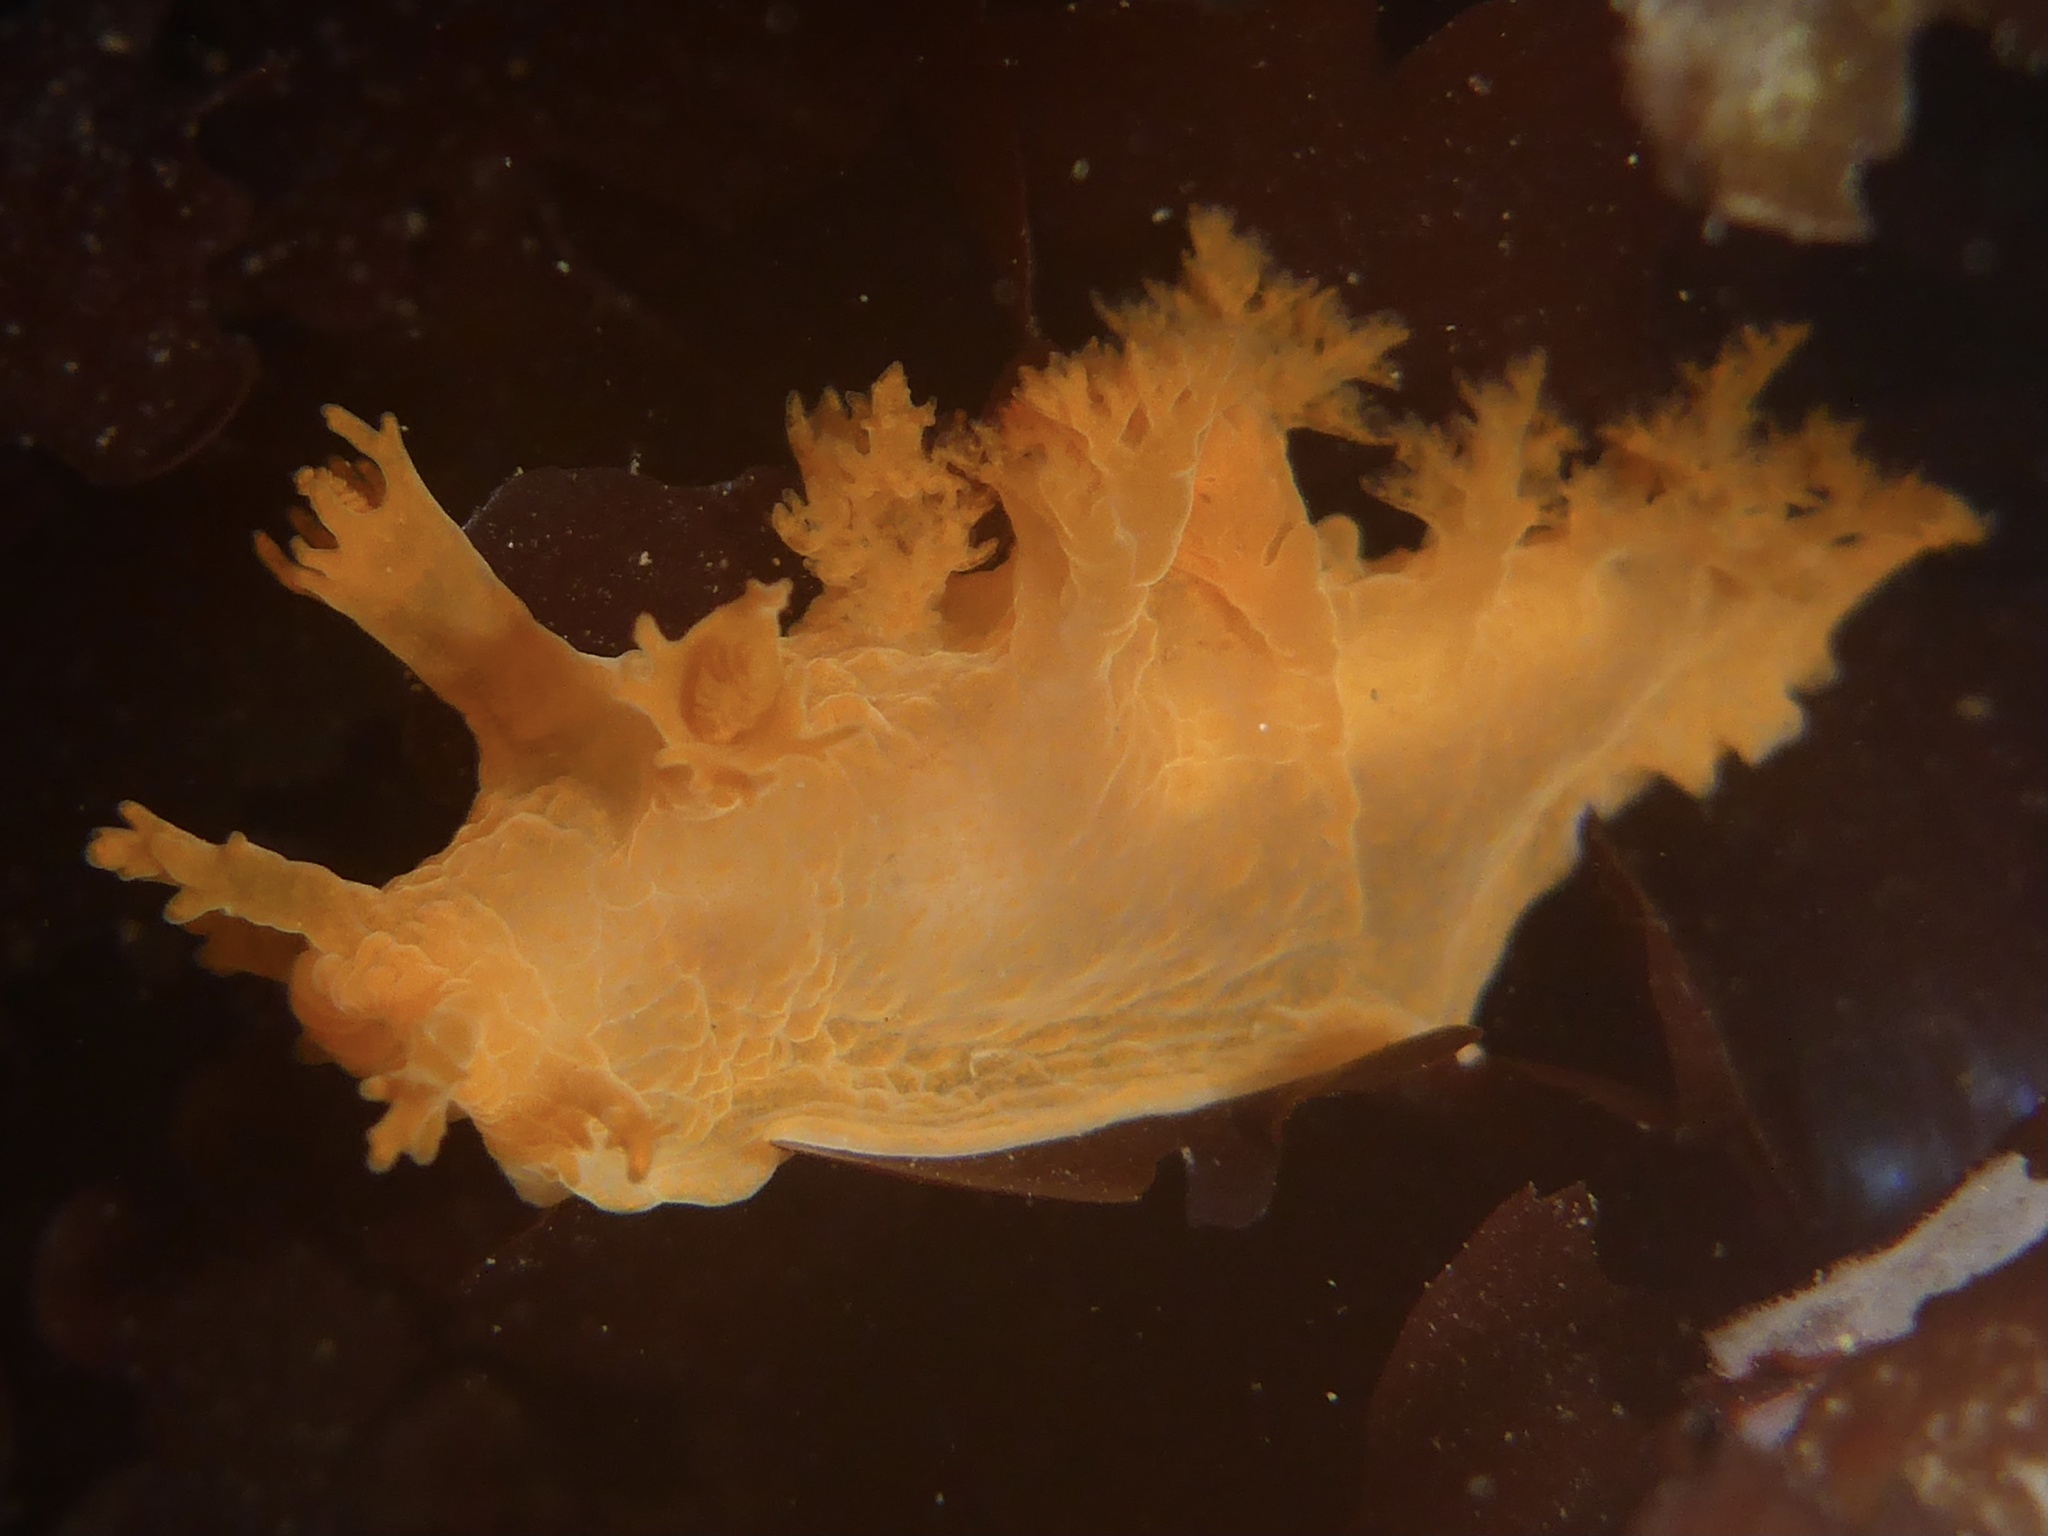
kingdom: Animalia
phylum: Mollusca
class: Gastropoda
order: Nudibranchia
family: Dendronotidae
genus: Dendronotus
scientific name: Dendronotus subramosus
